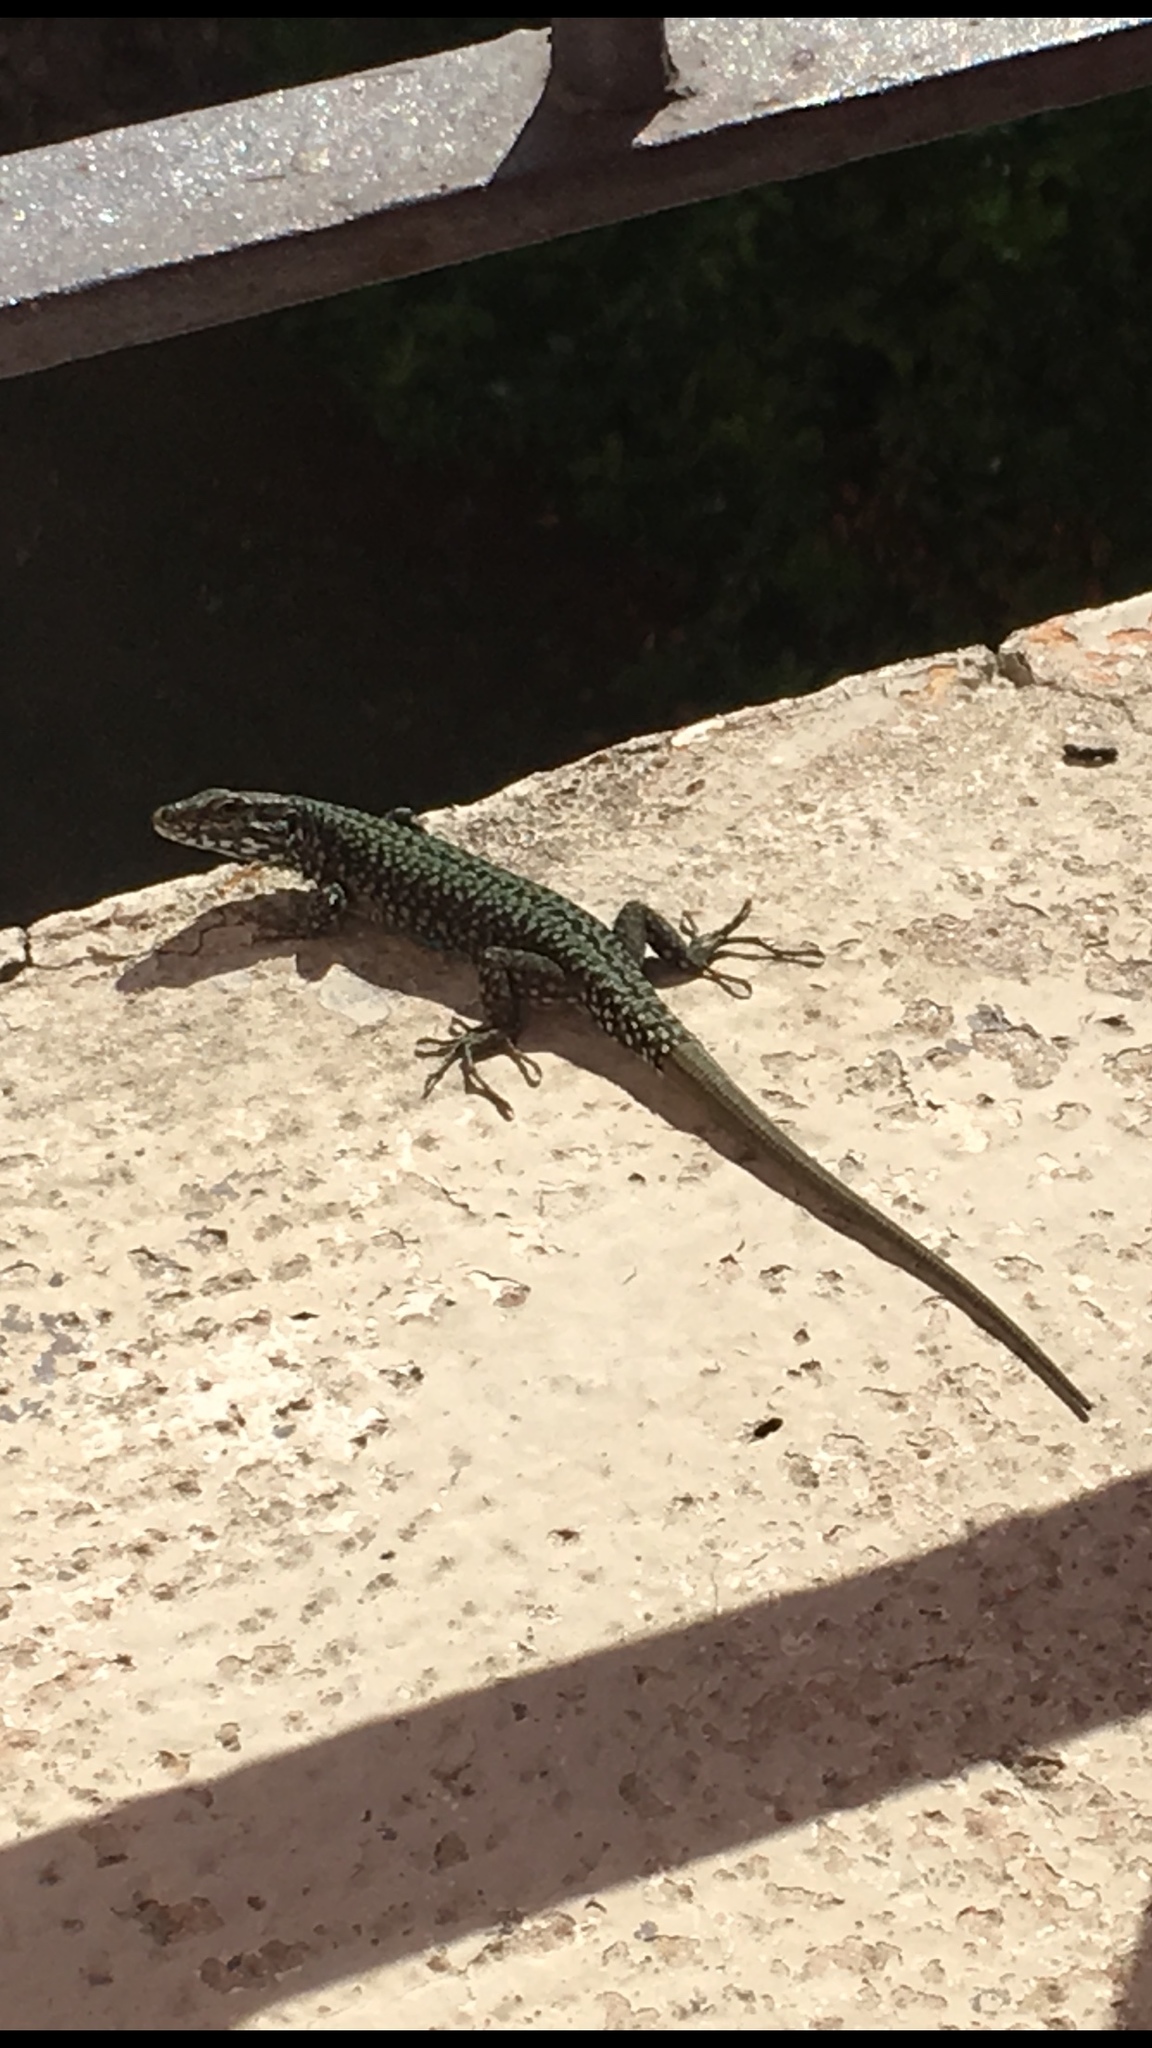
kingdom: Animalia
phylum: Chordata
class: Squamata
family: Lacertidae
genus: Podarcis
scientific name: Podarcis muralis
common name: Common wall lizard
